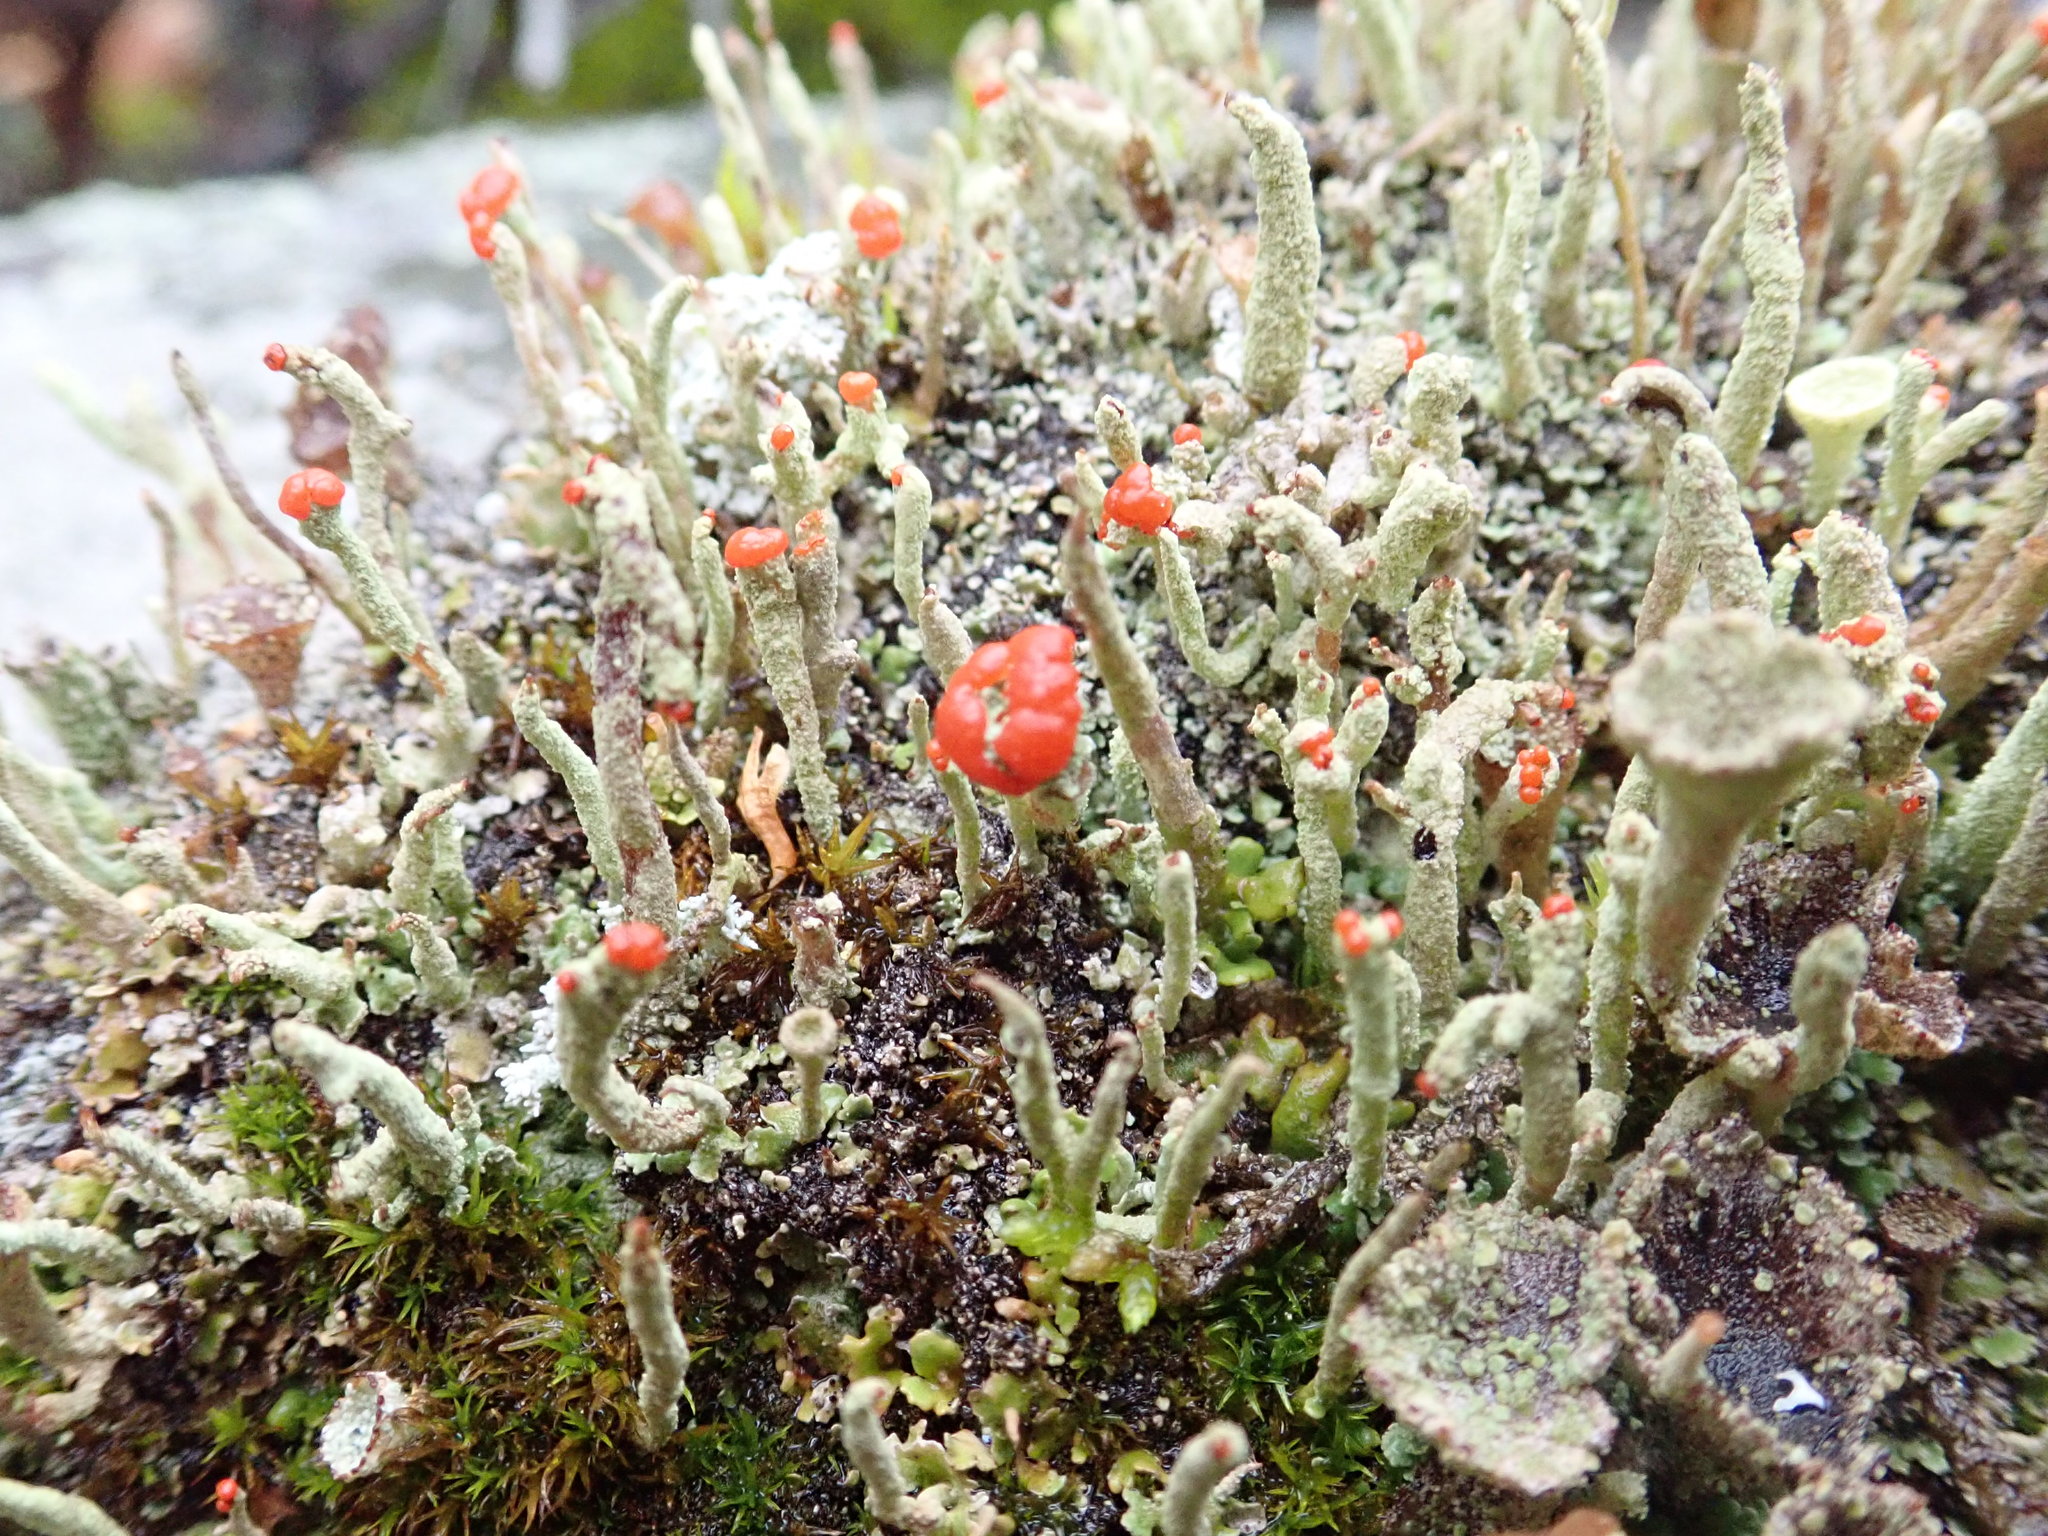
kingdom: Fungi
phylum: Ascomycota
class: Lecanoromycetes
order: Lecanorales
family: Cladoniaceae
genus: Cladonia
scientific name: Cladonia macilenta
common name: Lipstick powderhorn
